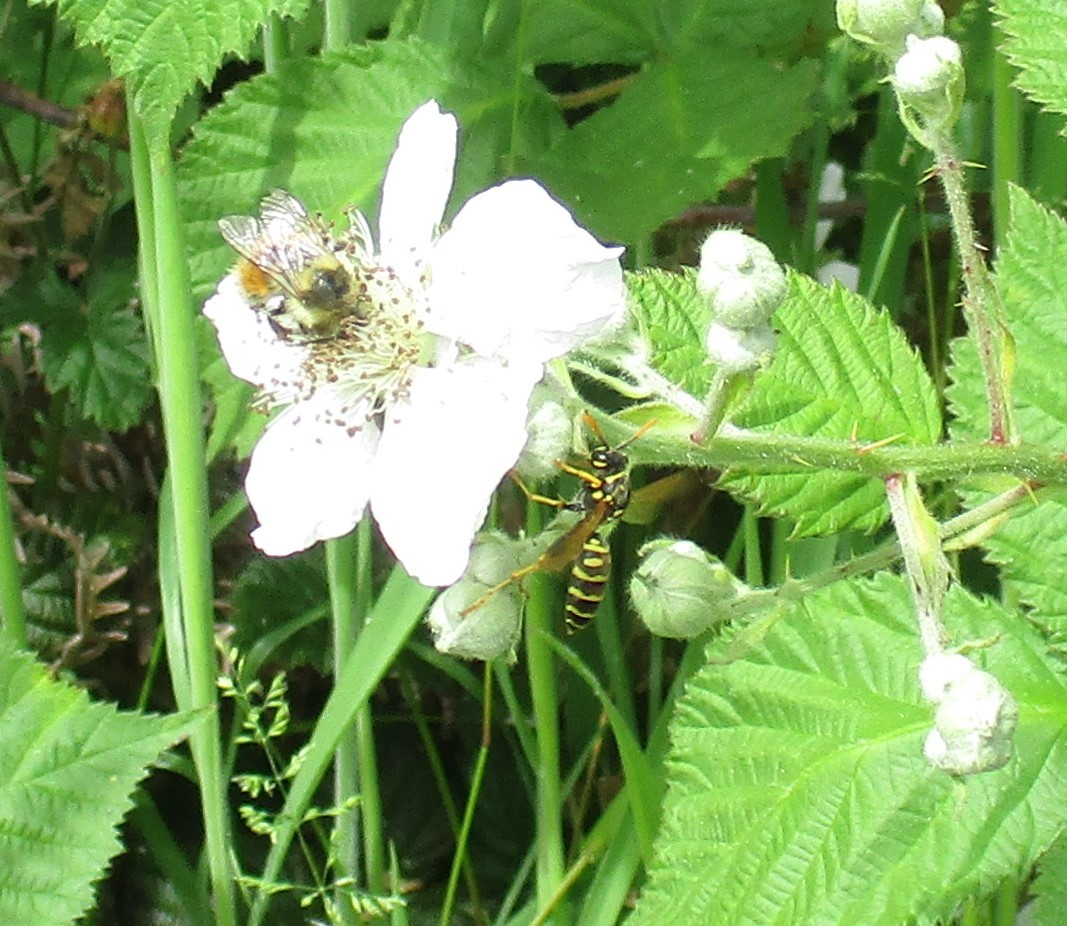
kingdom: Animalia
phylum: Arthropoda
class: Insecta
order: Hymenoptera
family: Eumenidae
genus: Polistes
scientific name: Polistes dominula
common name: Paper wasp
